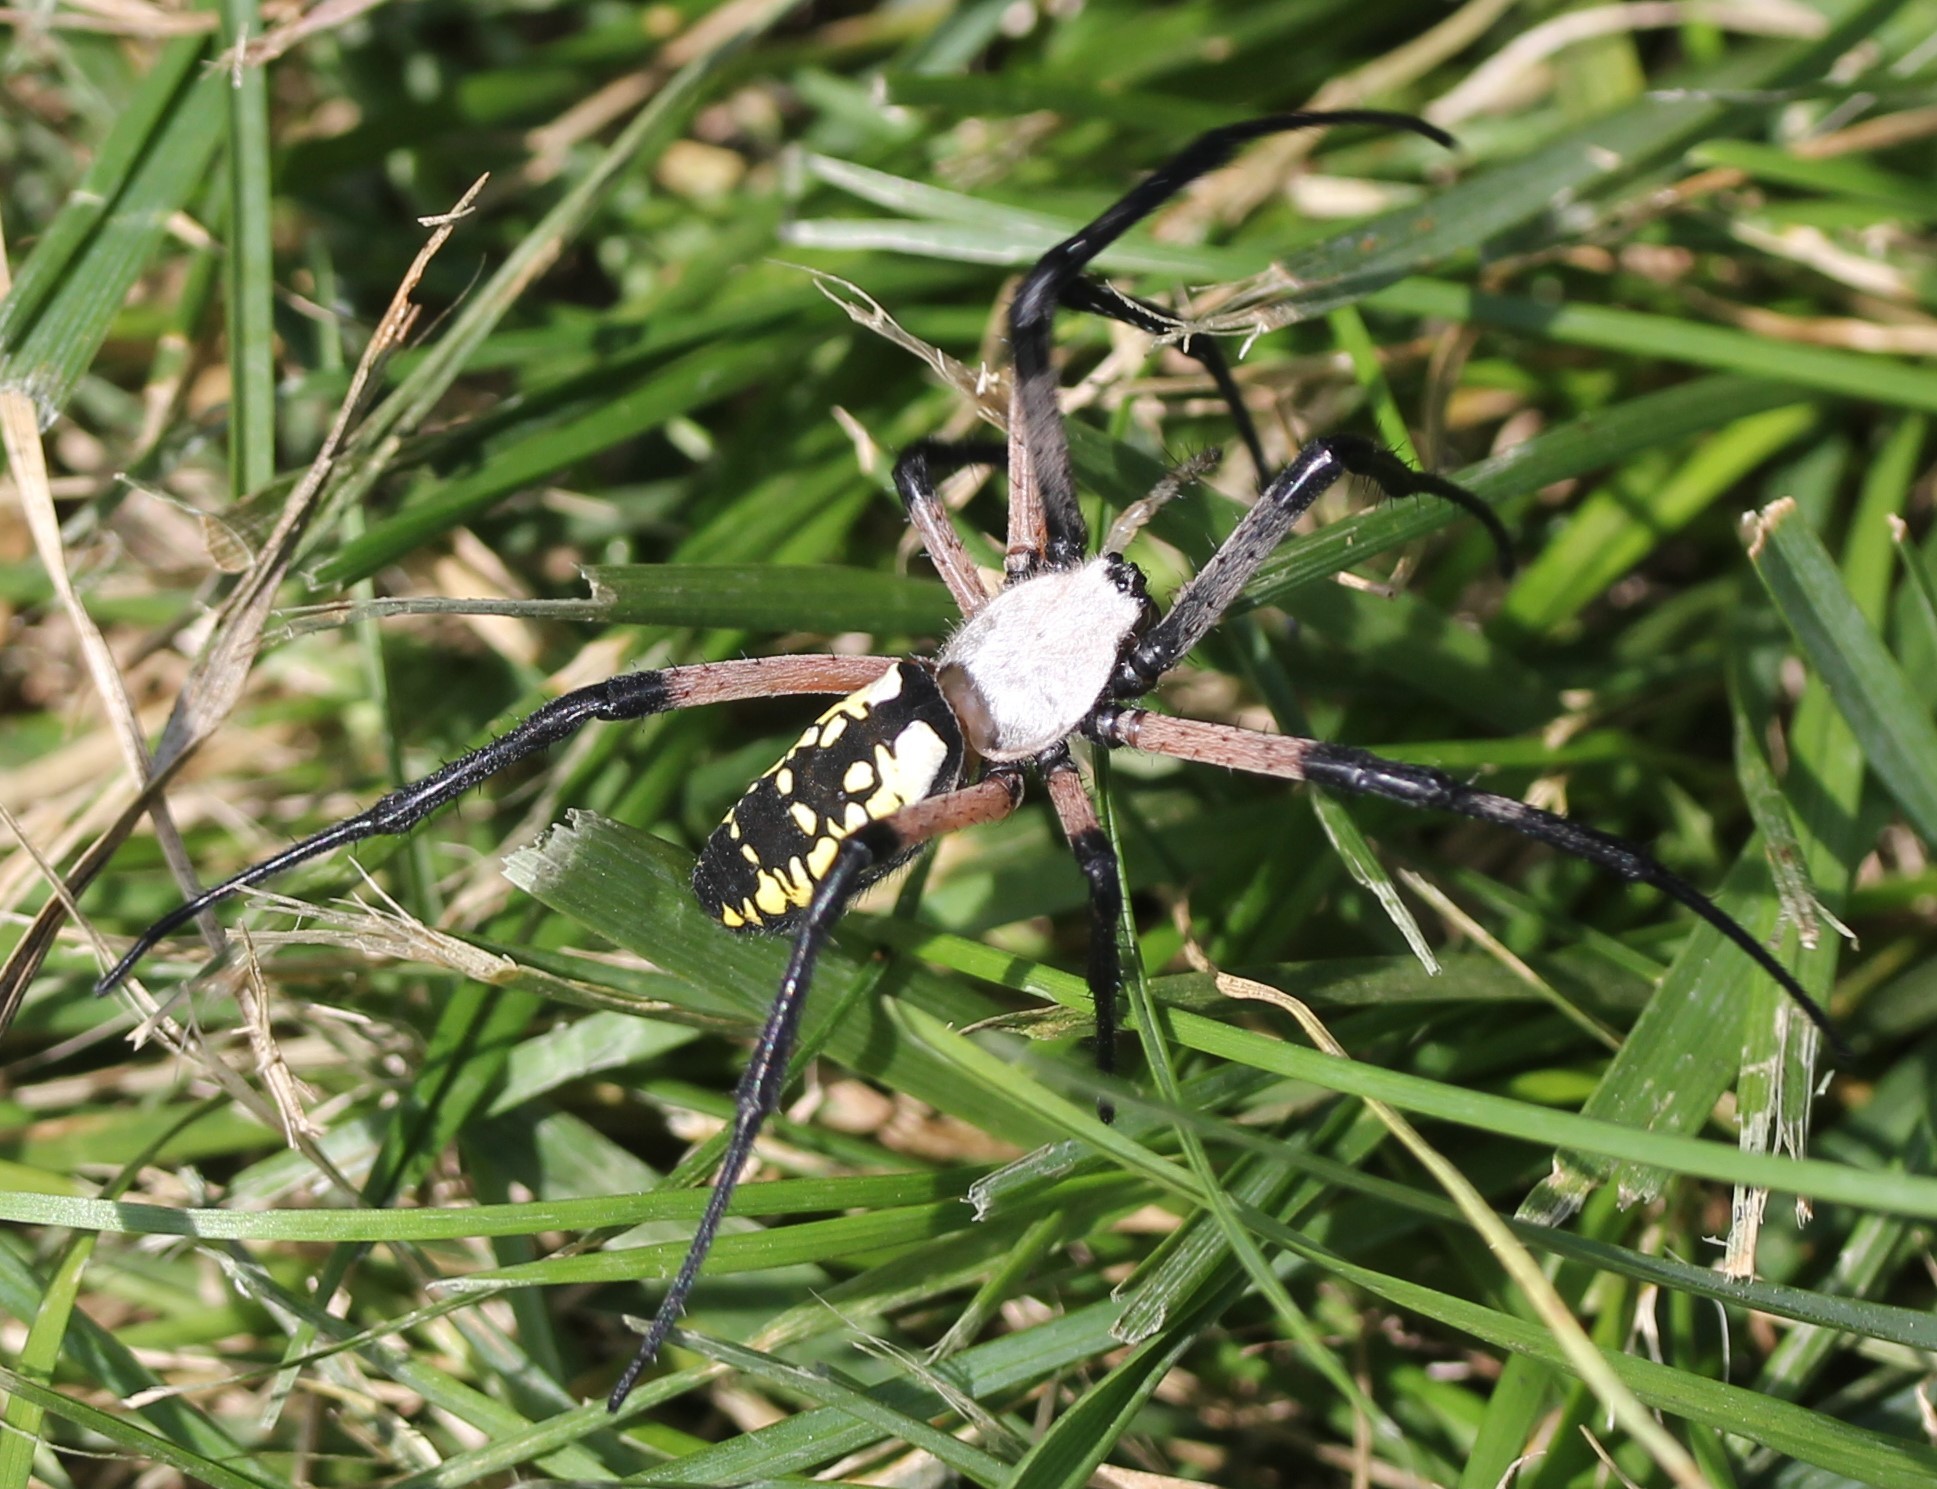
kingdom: Animalia
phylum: Arthropoda
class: Arachnida
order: Araneae
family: Araneidae
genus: Argiope
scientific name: Argiope aurantia
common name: Orb weavers
